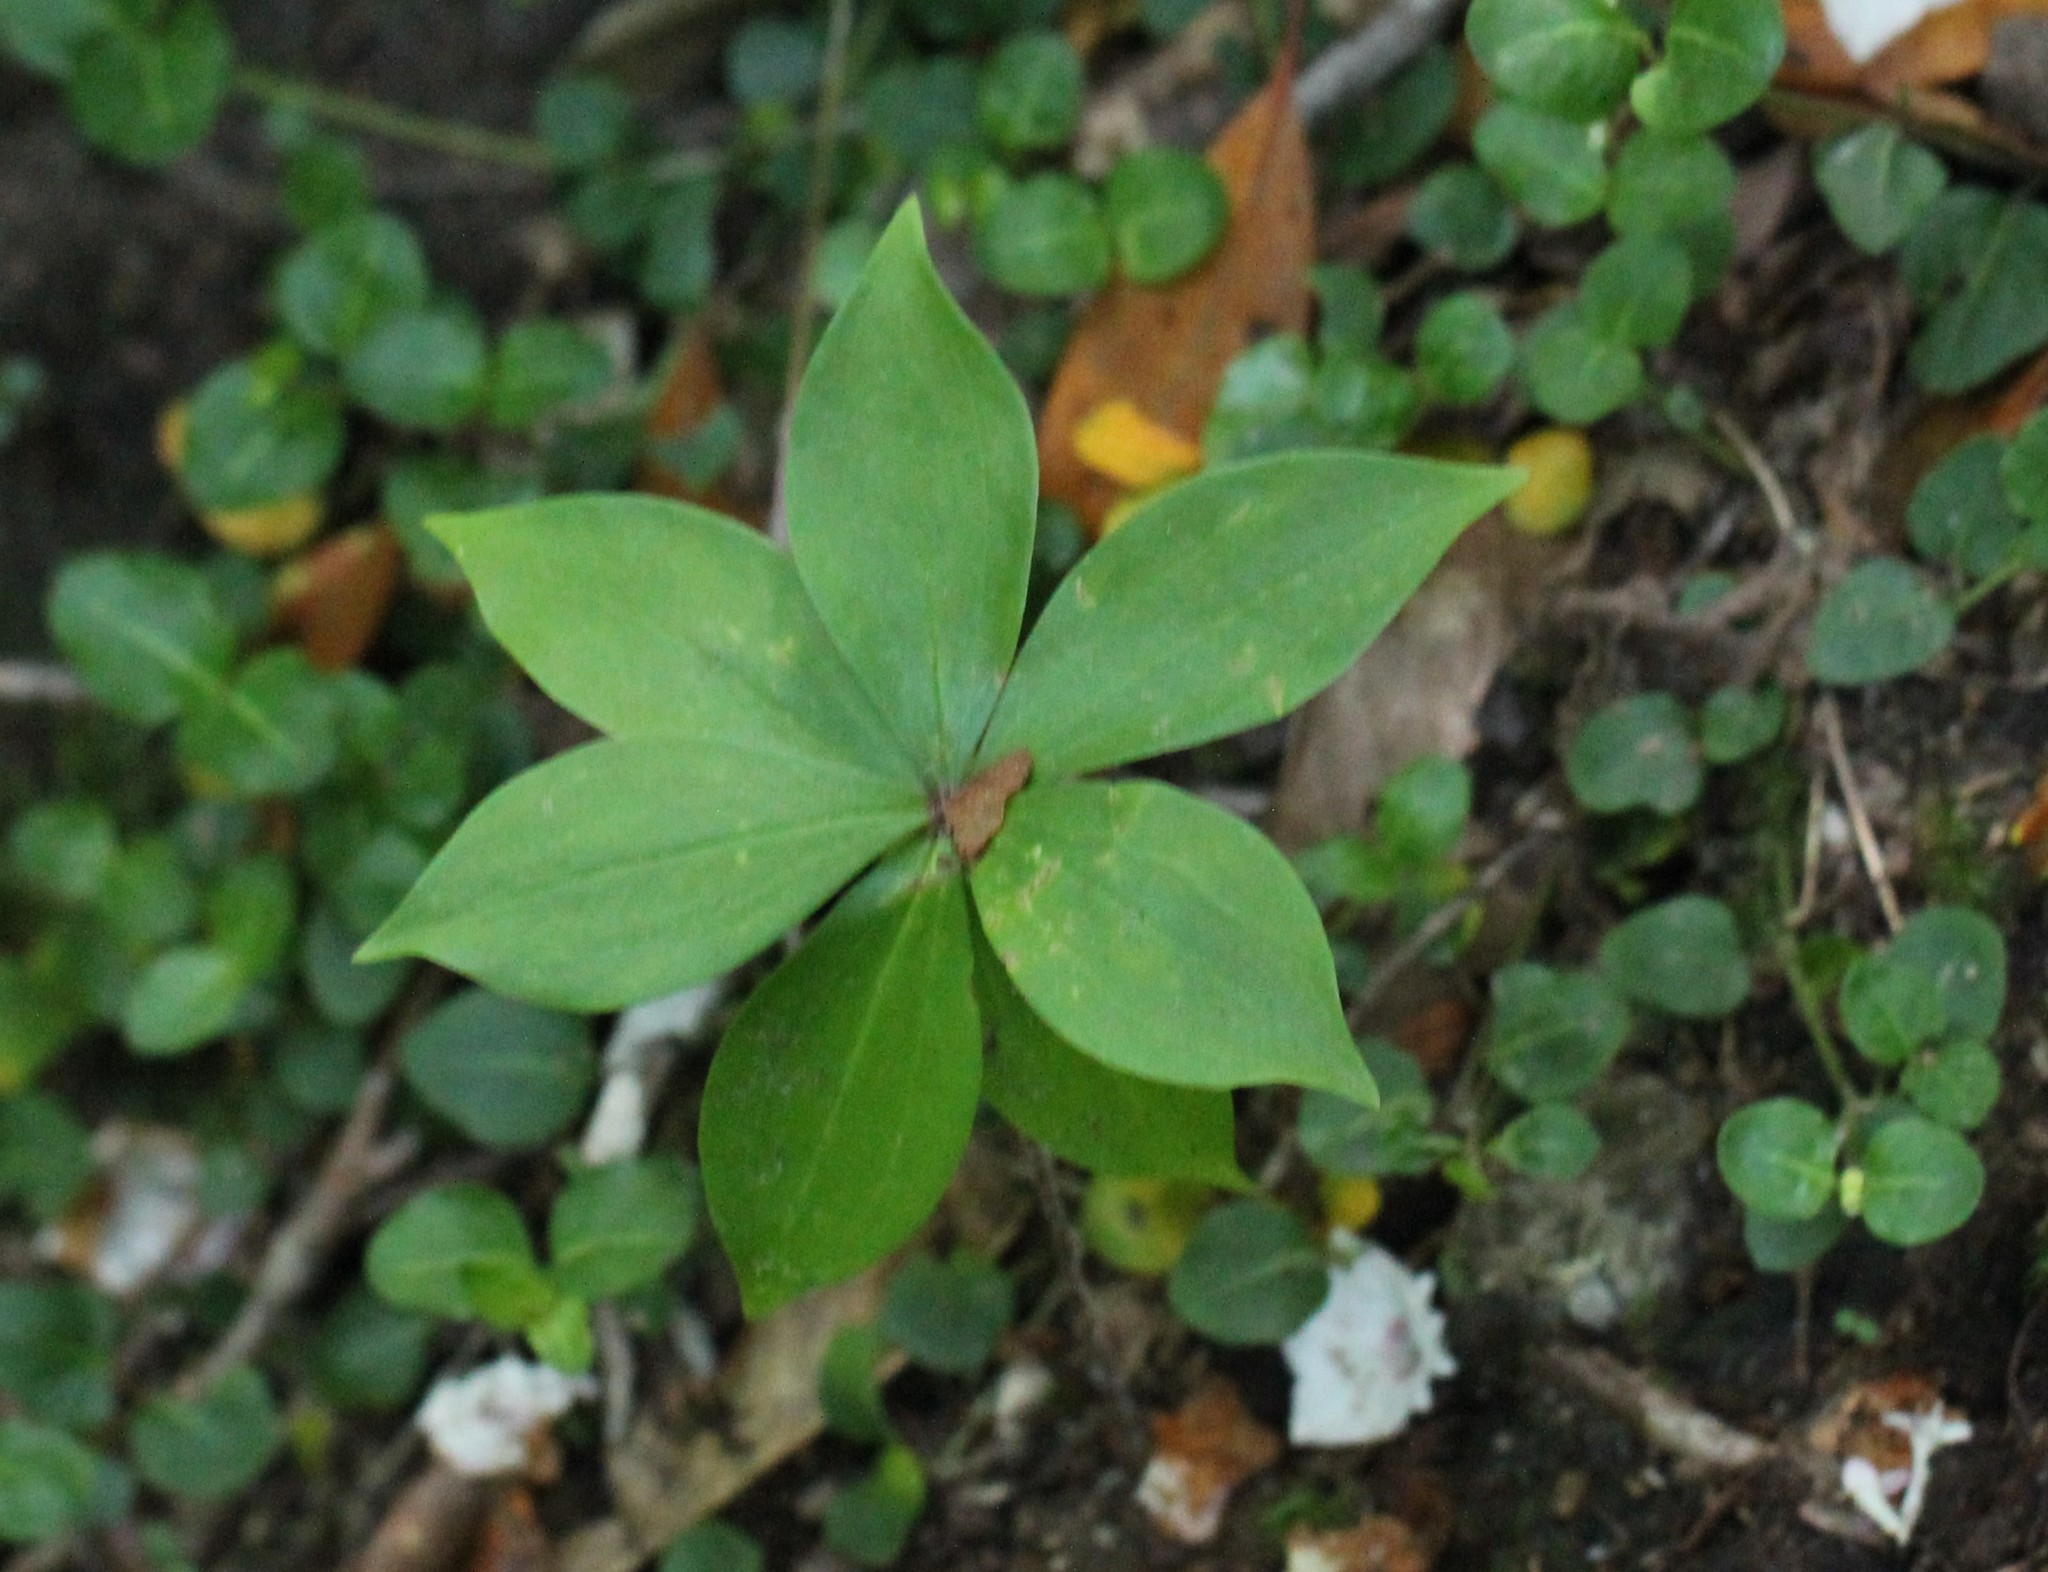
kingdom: Plantae
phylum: Tracheophyta
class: Liliopsida
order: Liliales
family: Liliaceae
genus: Medeola
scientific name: Medeola virginiana
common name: Indian cucumber-root
